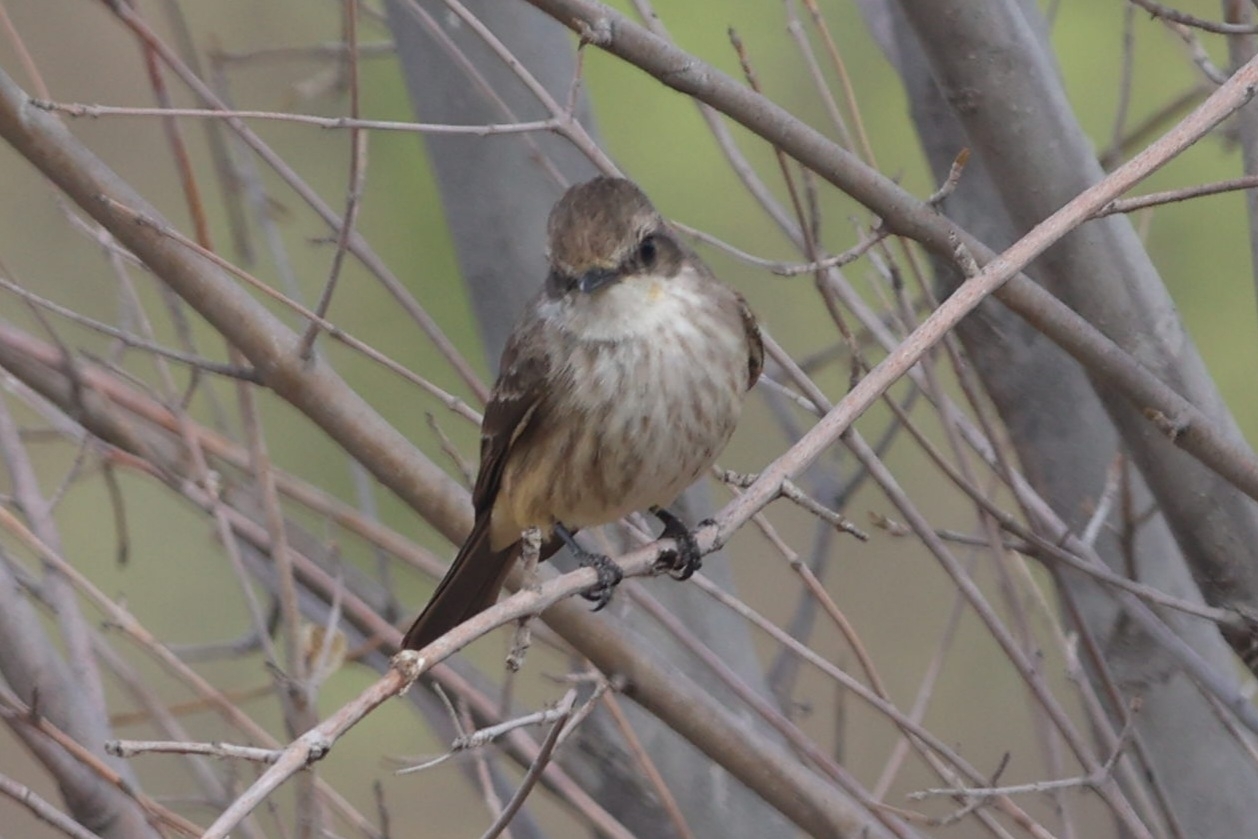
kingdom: Animalia
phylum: Chordata
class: Aves
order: Passeriformes
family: Tyrannidae
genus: Pyrocephalus
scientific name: Pyrocephalus rubinus
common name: Vermilion flycatcher
